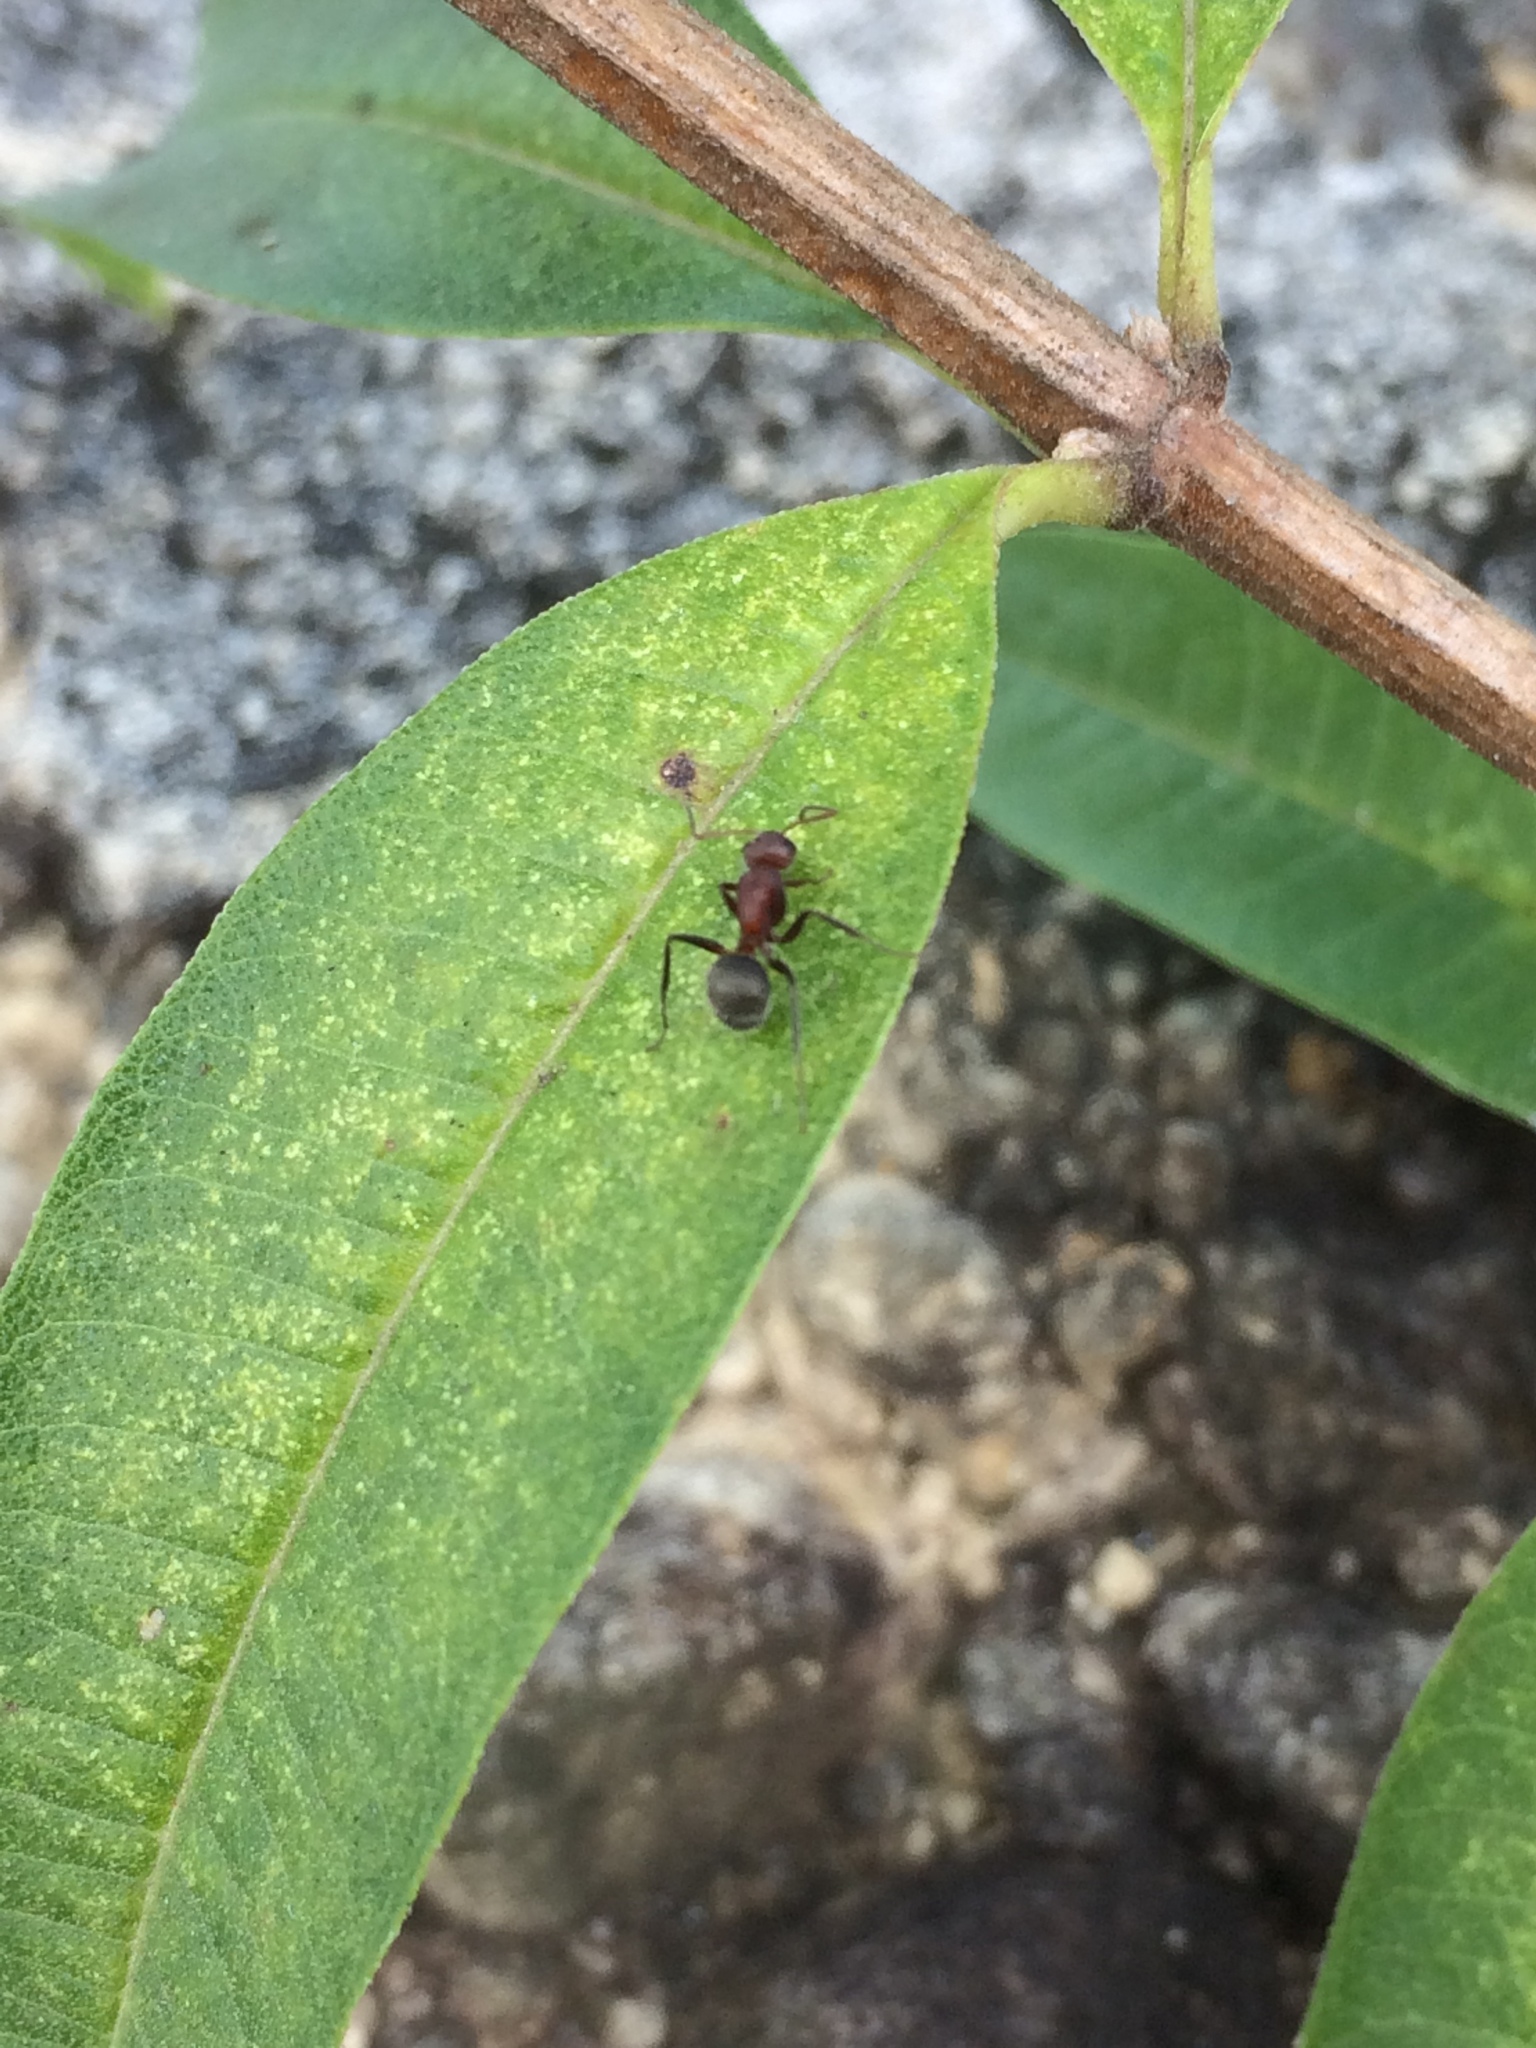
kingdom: Animalia
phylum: Arthropoda
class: Insecta
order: Hymenoptera
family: Formicidae
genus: Camponotus
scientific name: Camponotus planatus
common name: Compact carpenter ant
